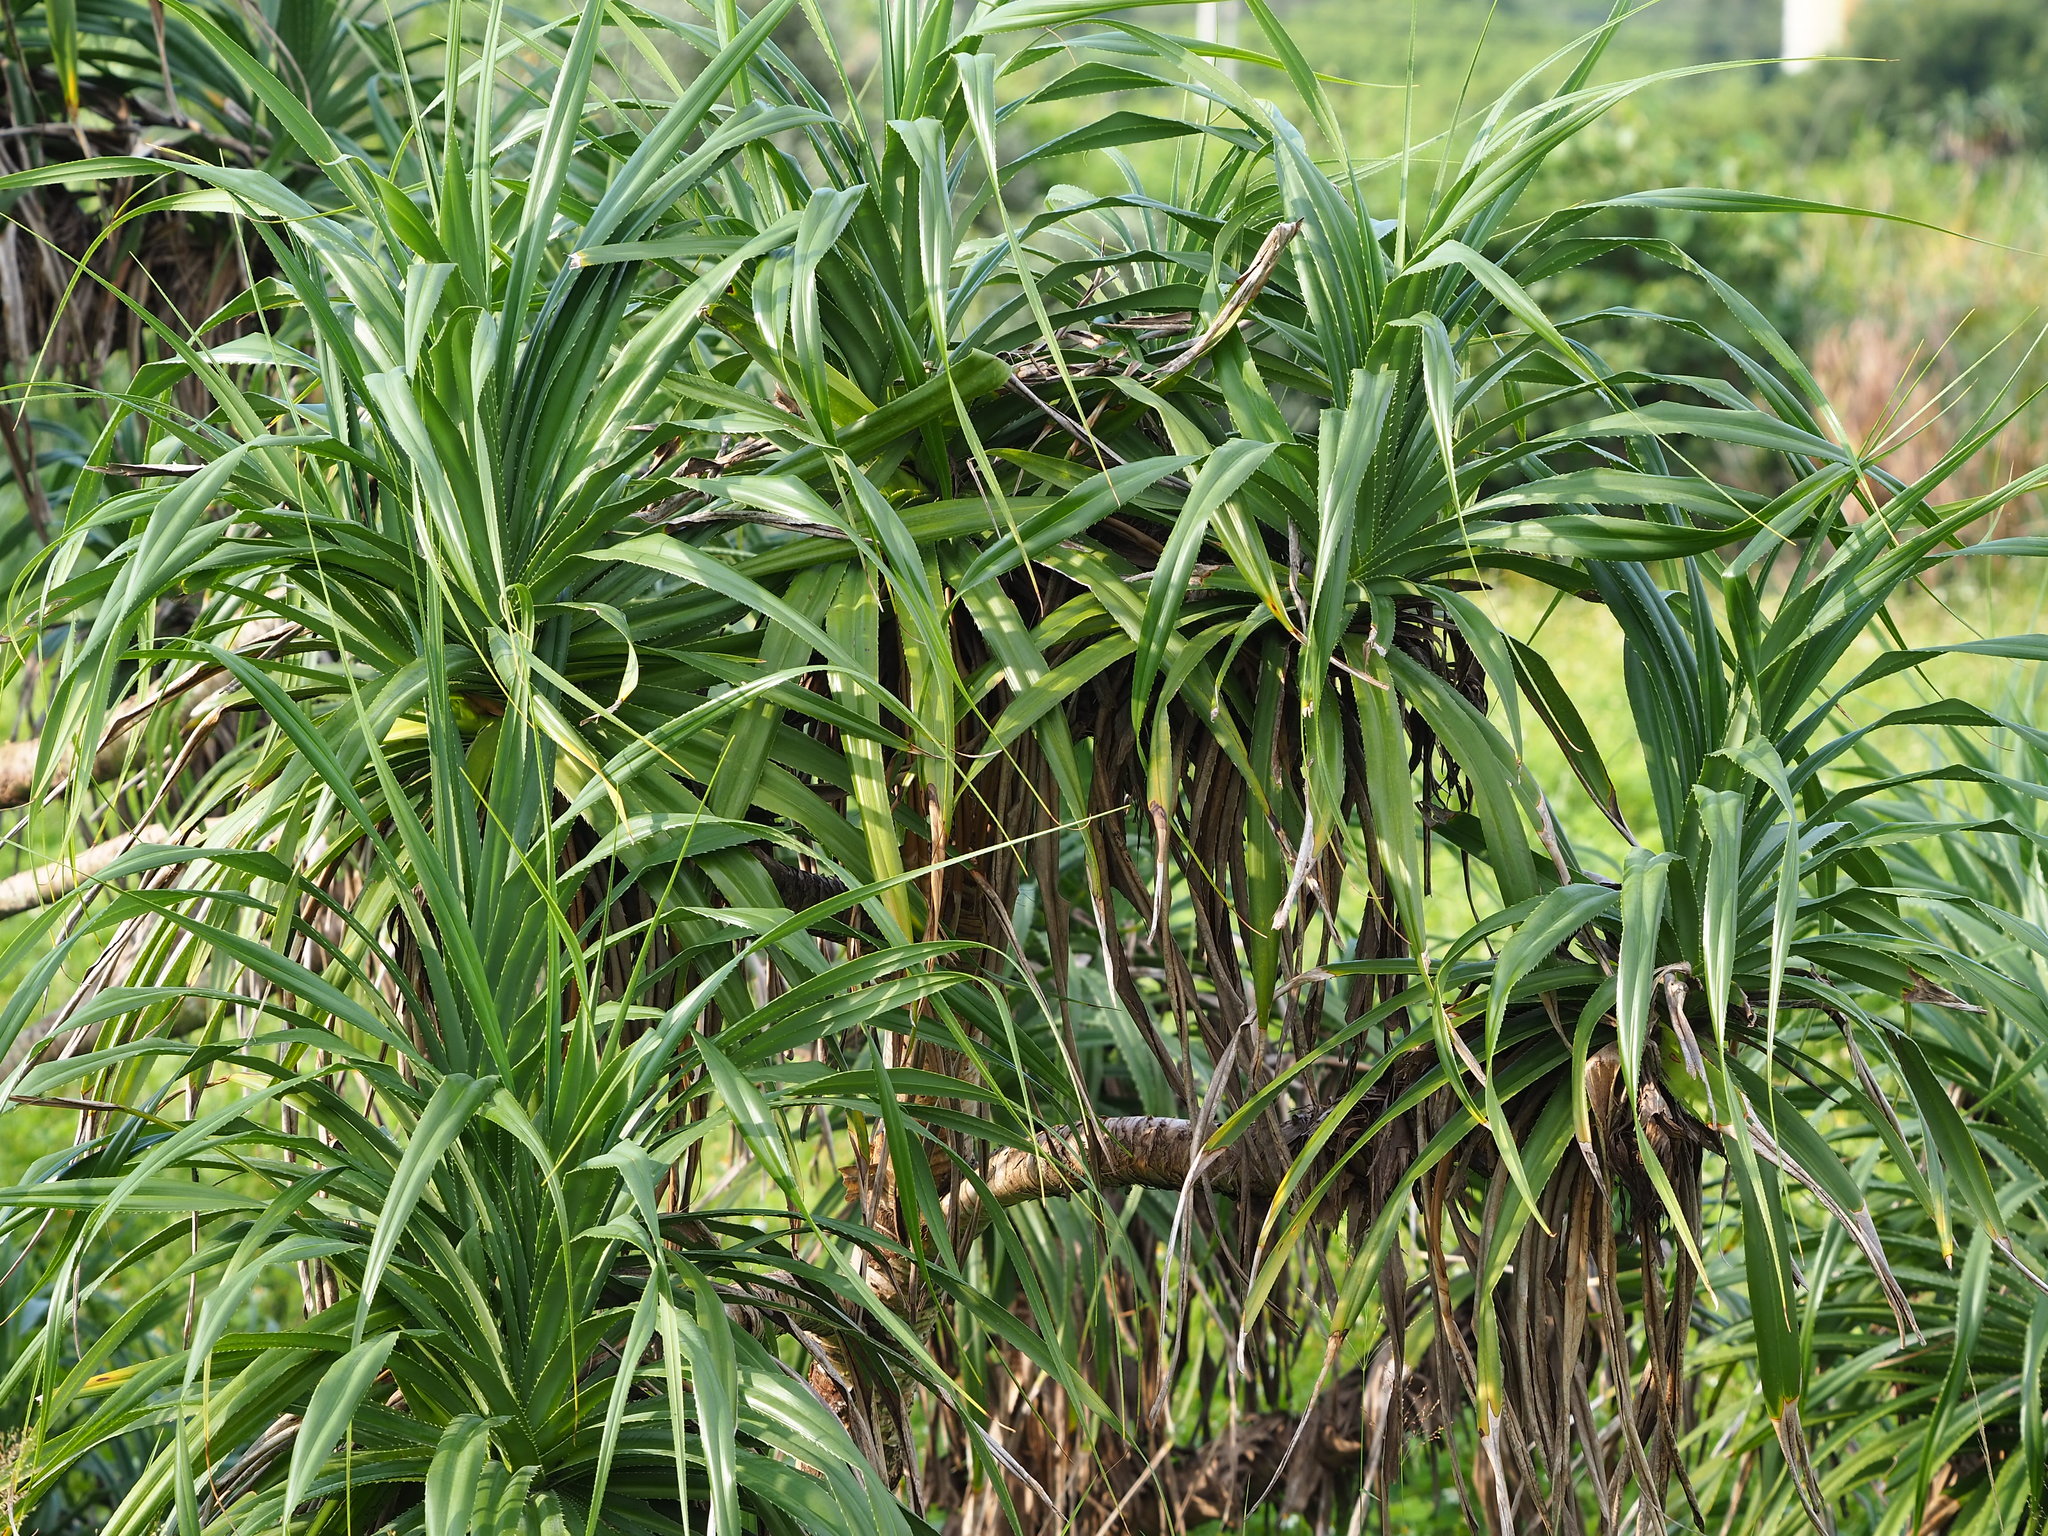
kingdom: Plantae
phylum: Tracheophyta
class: Liliopsida
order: Pandanales
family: Pandanaceae
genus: Pandanus
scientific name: Pandanus odorifer
